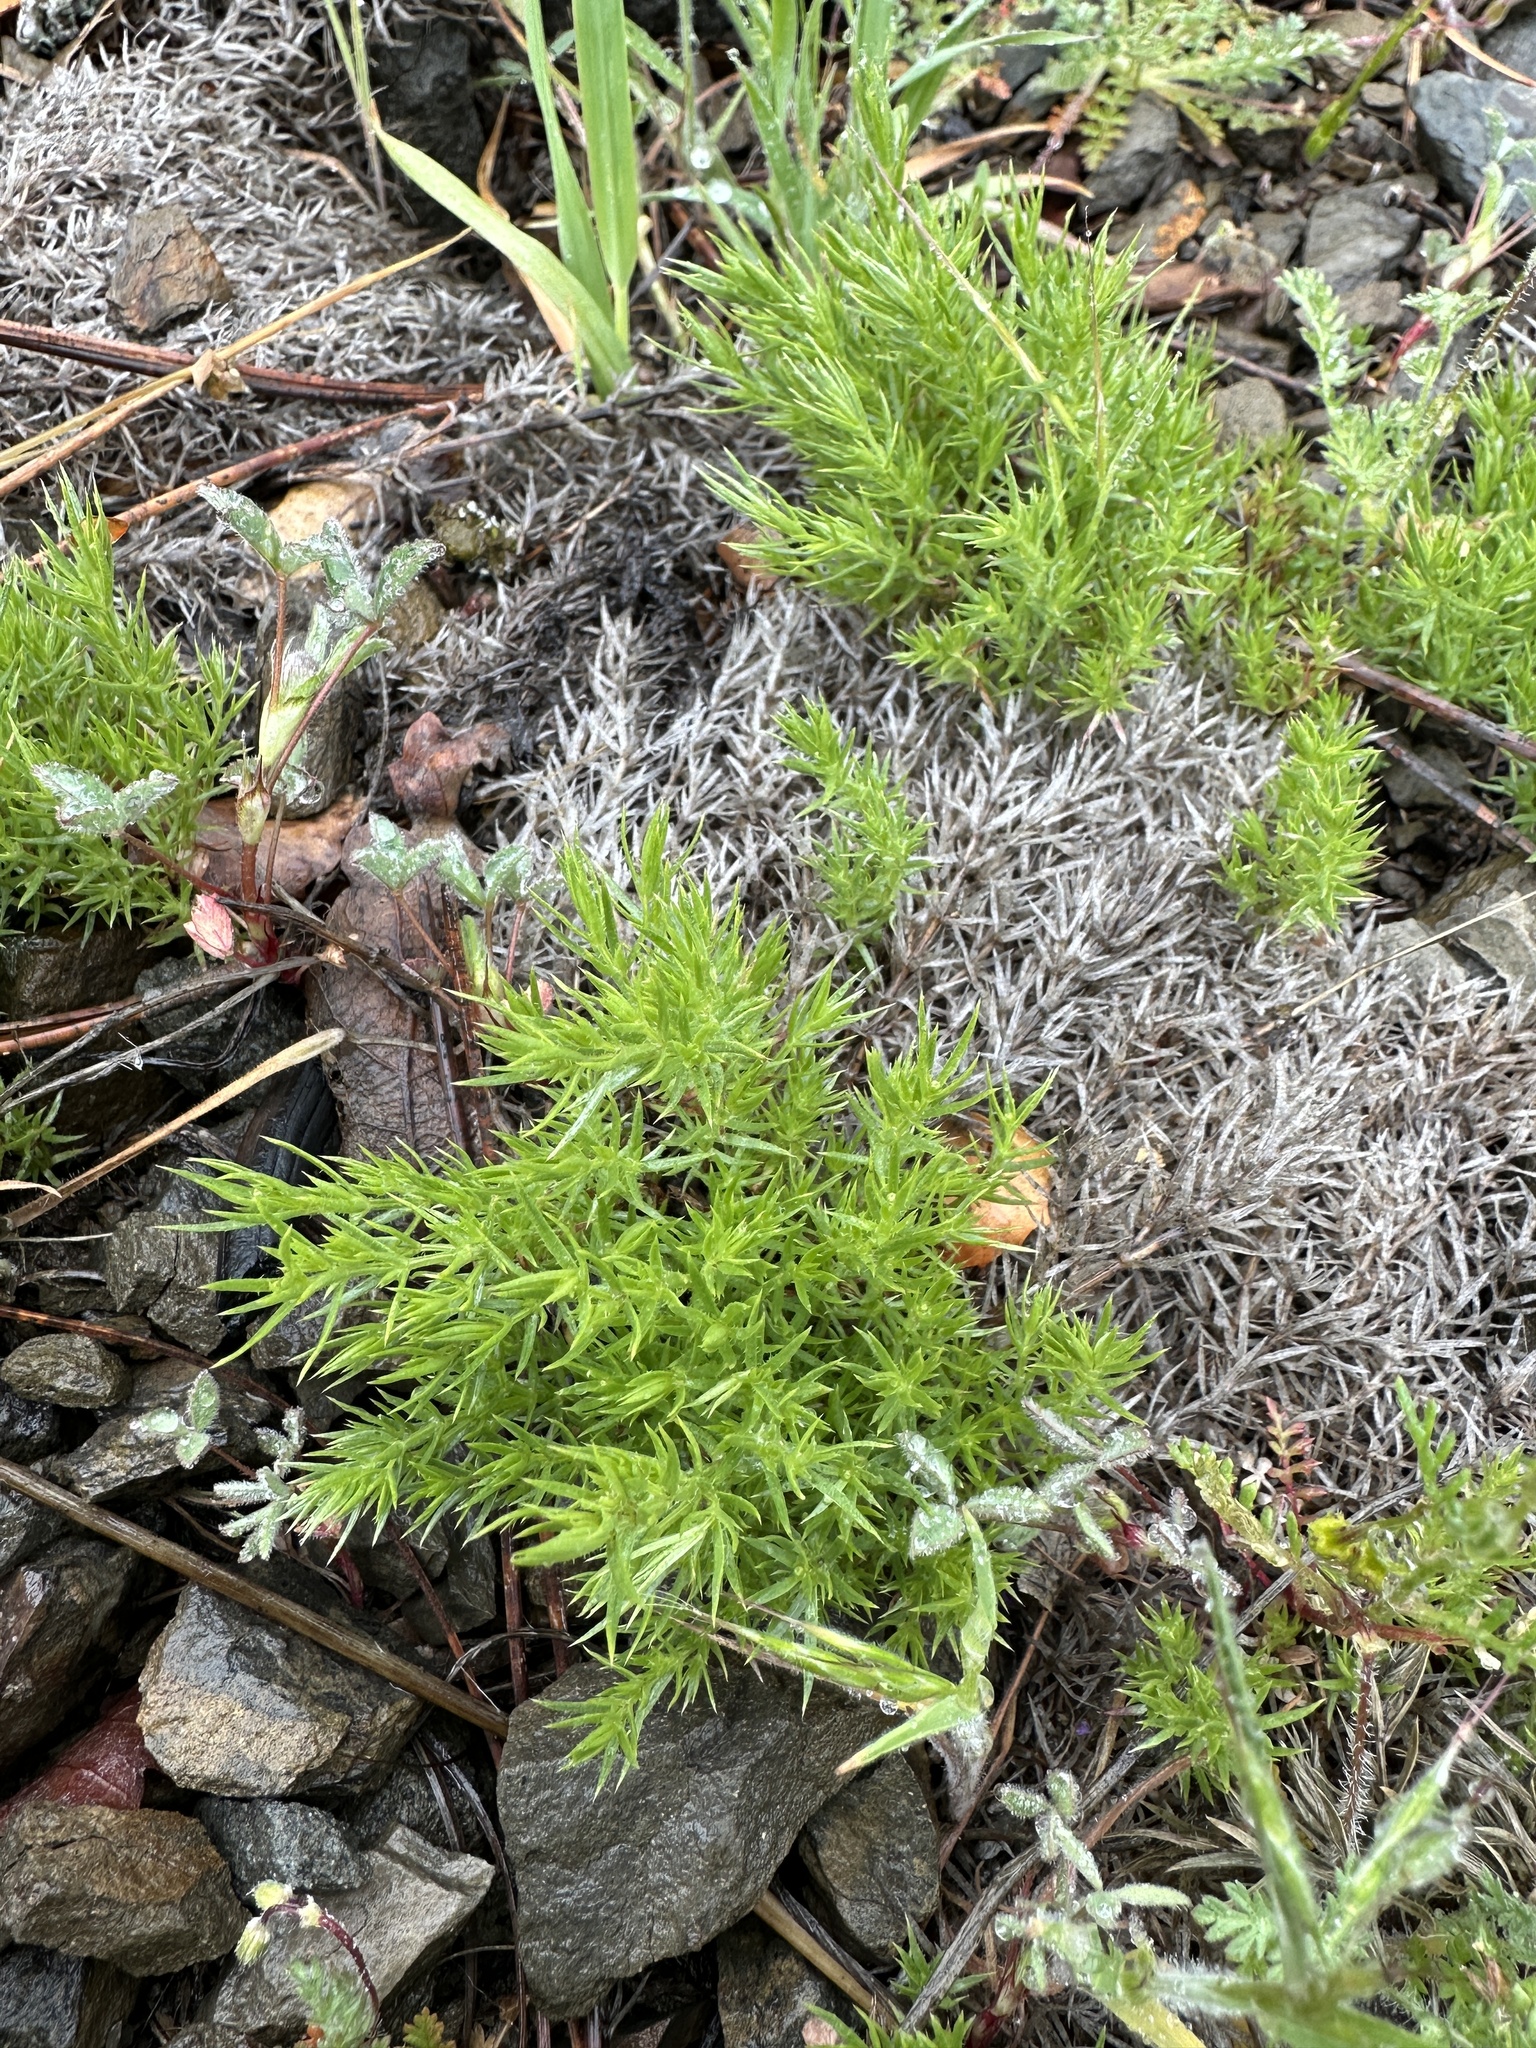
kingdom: Plantae
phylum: Tracheophyta
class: Magnoliopsida
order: Gentianales
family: Rubiaceae
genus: Galium
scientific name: Galium andrewsii
